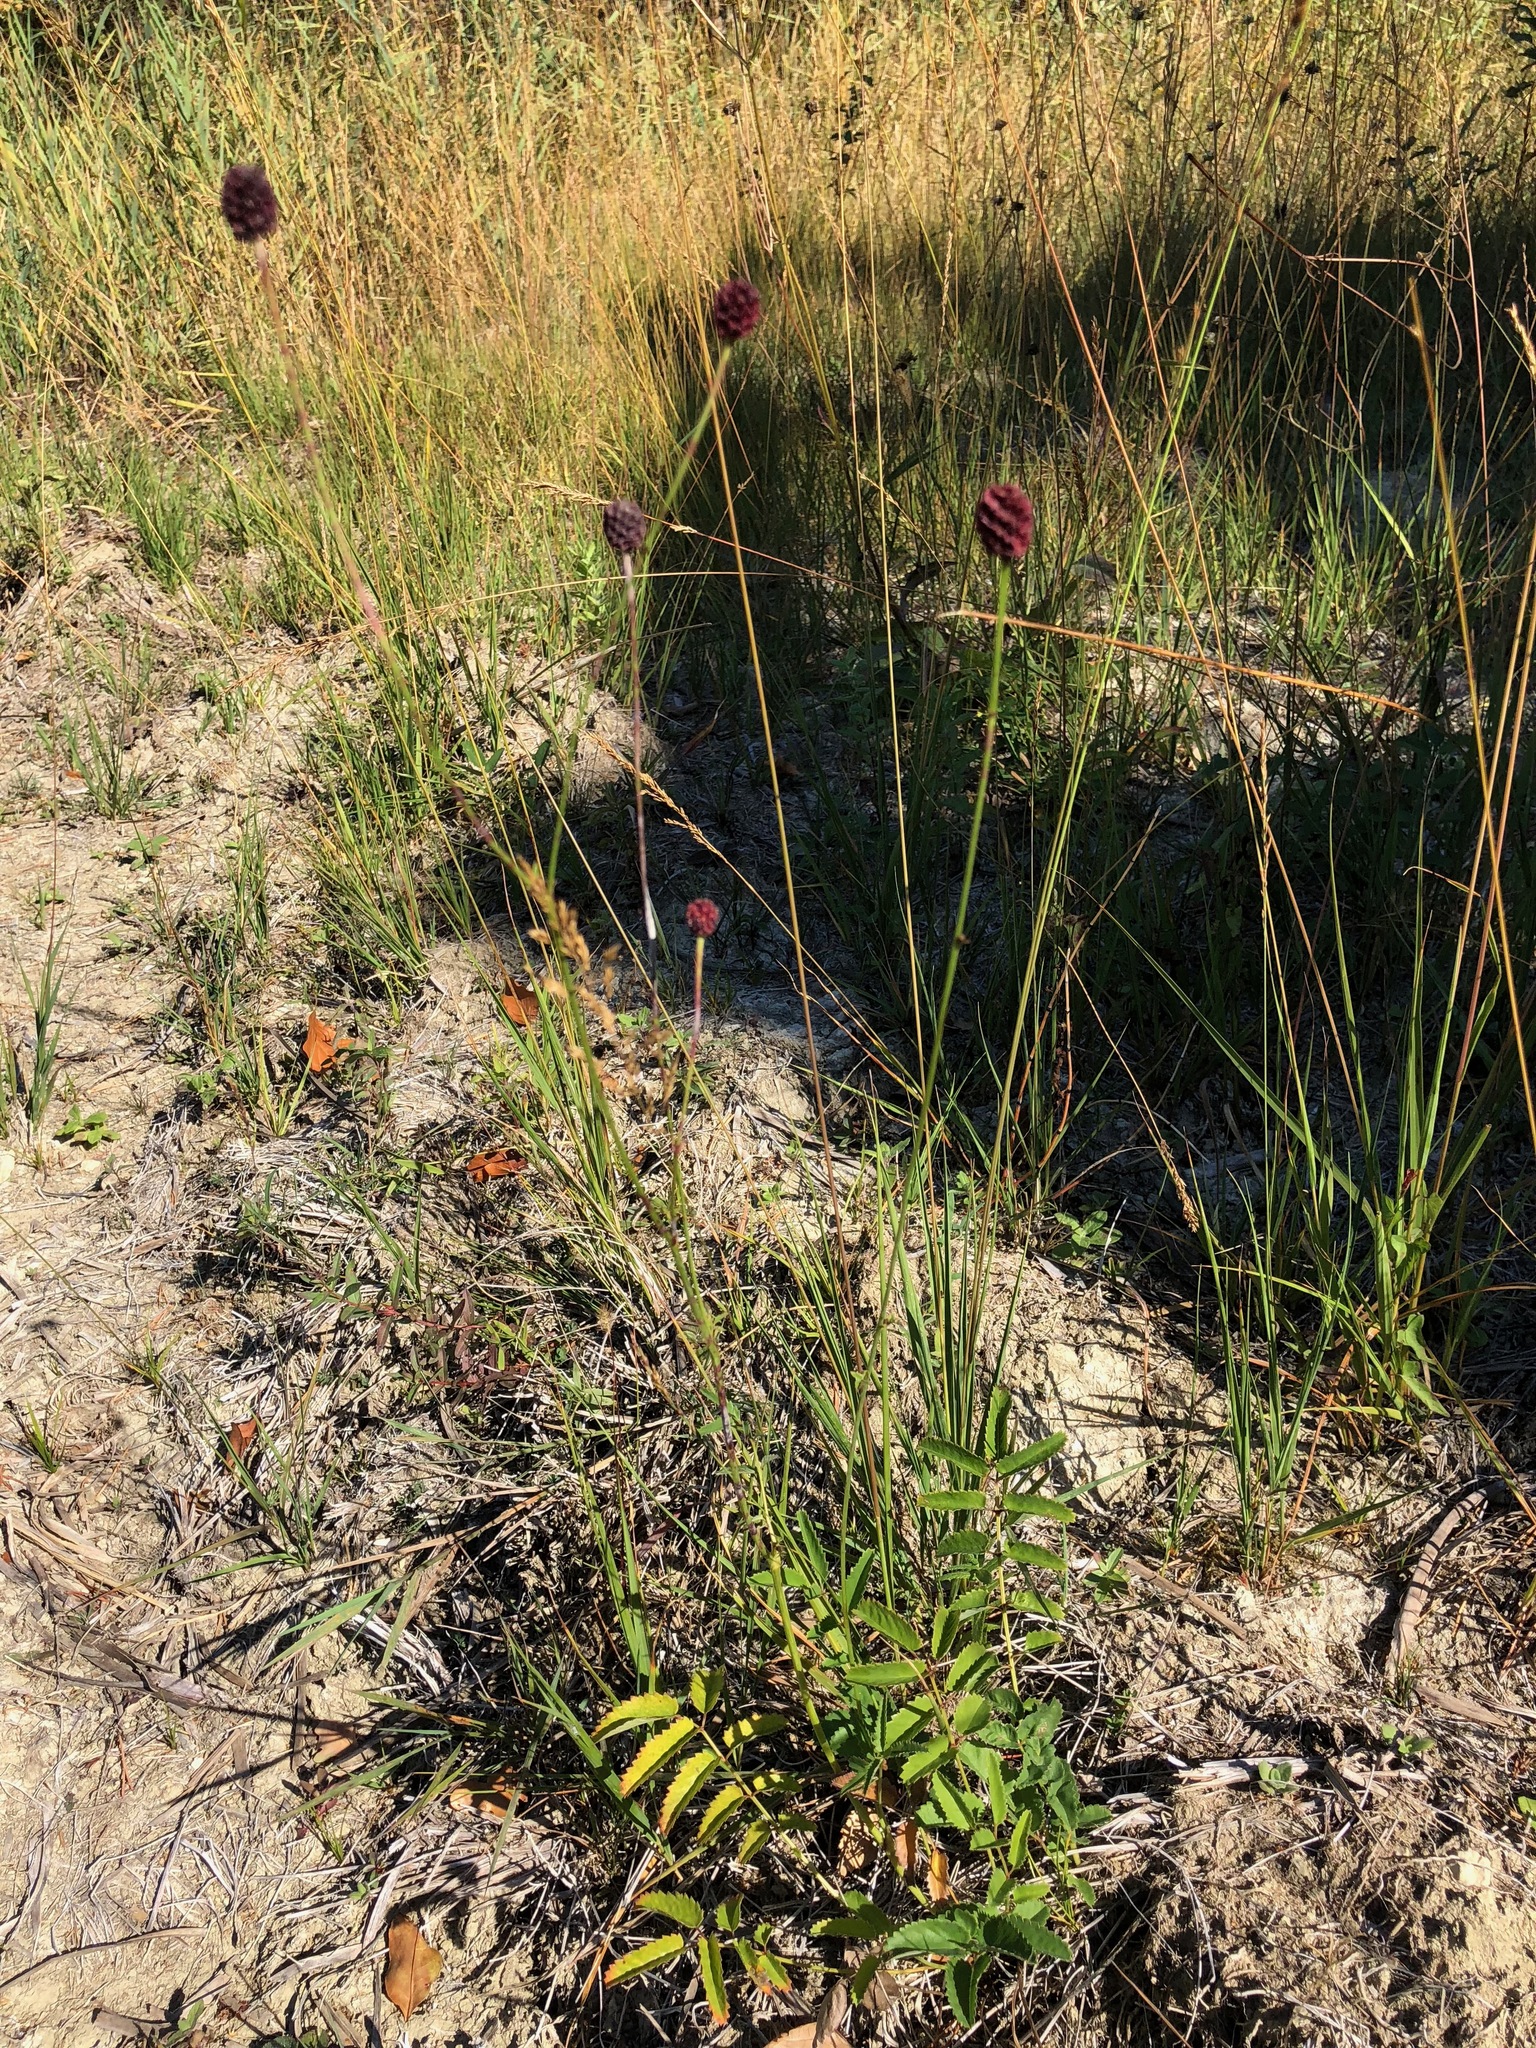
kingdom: Plantae
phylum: Tracheophyta
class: Magnoliopsida
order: Rosales
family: Rosaceae
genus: Sanguisorba
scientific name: Sanguisorba officinalis
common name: Great burnet
